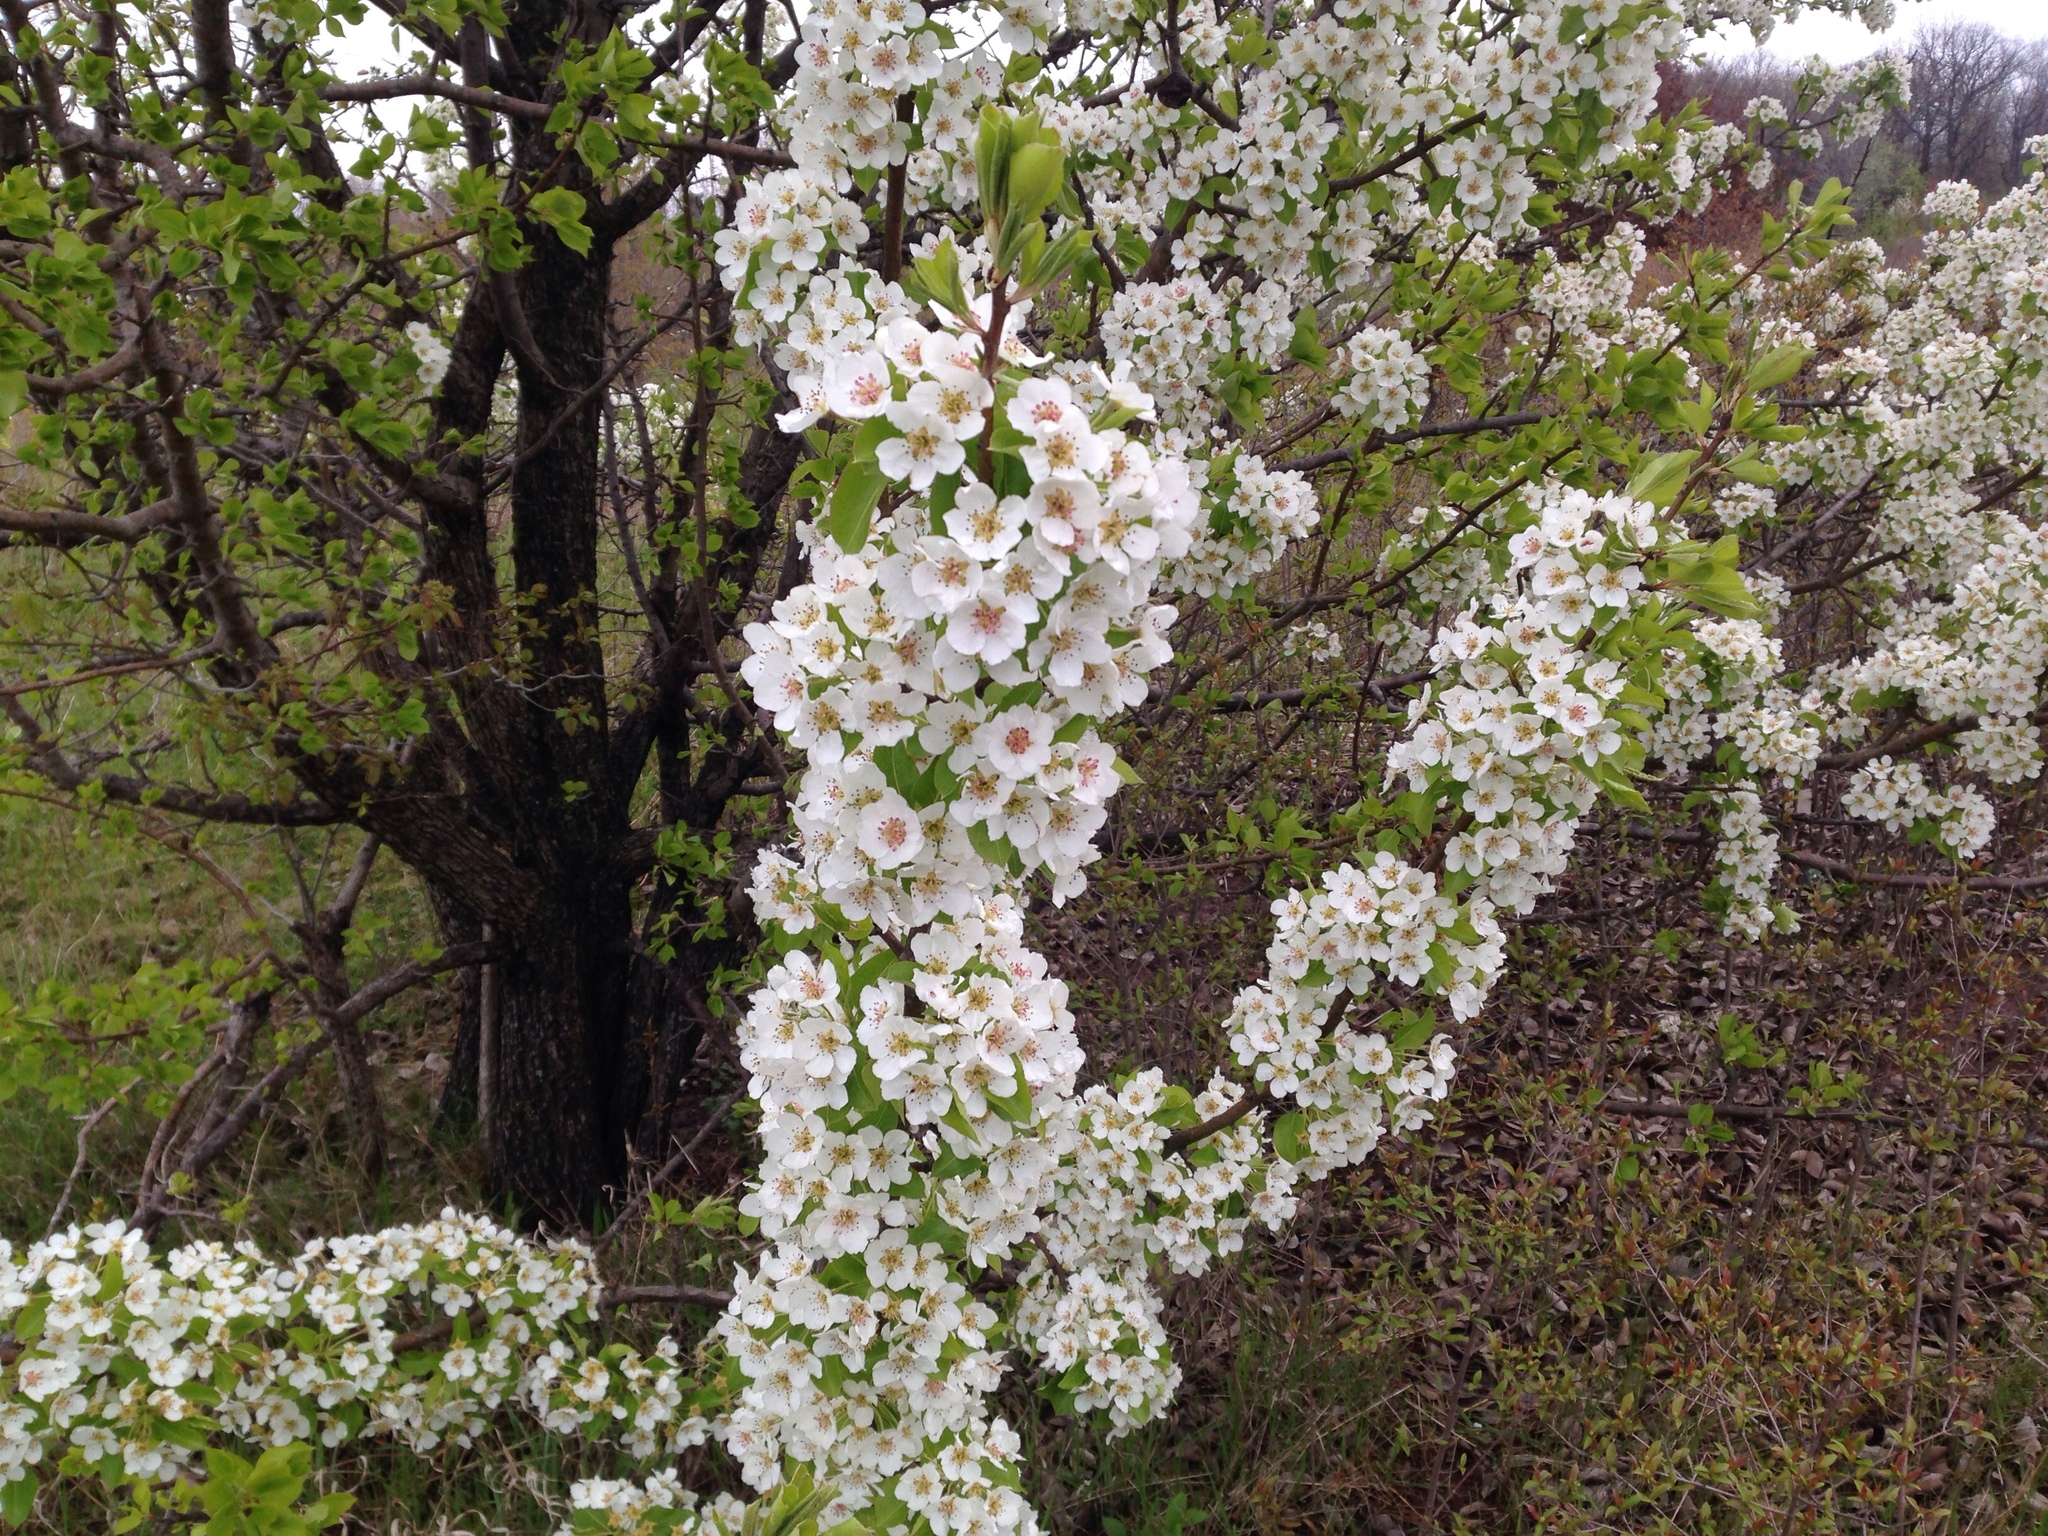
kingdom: Plantae
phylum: Tracheophyta
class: Magnoliopsida
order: Rosales
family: Rosaceae
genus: Pyrus
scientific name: Pyrus communis
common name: Pear
